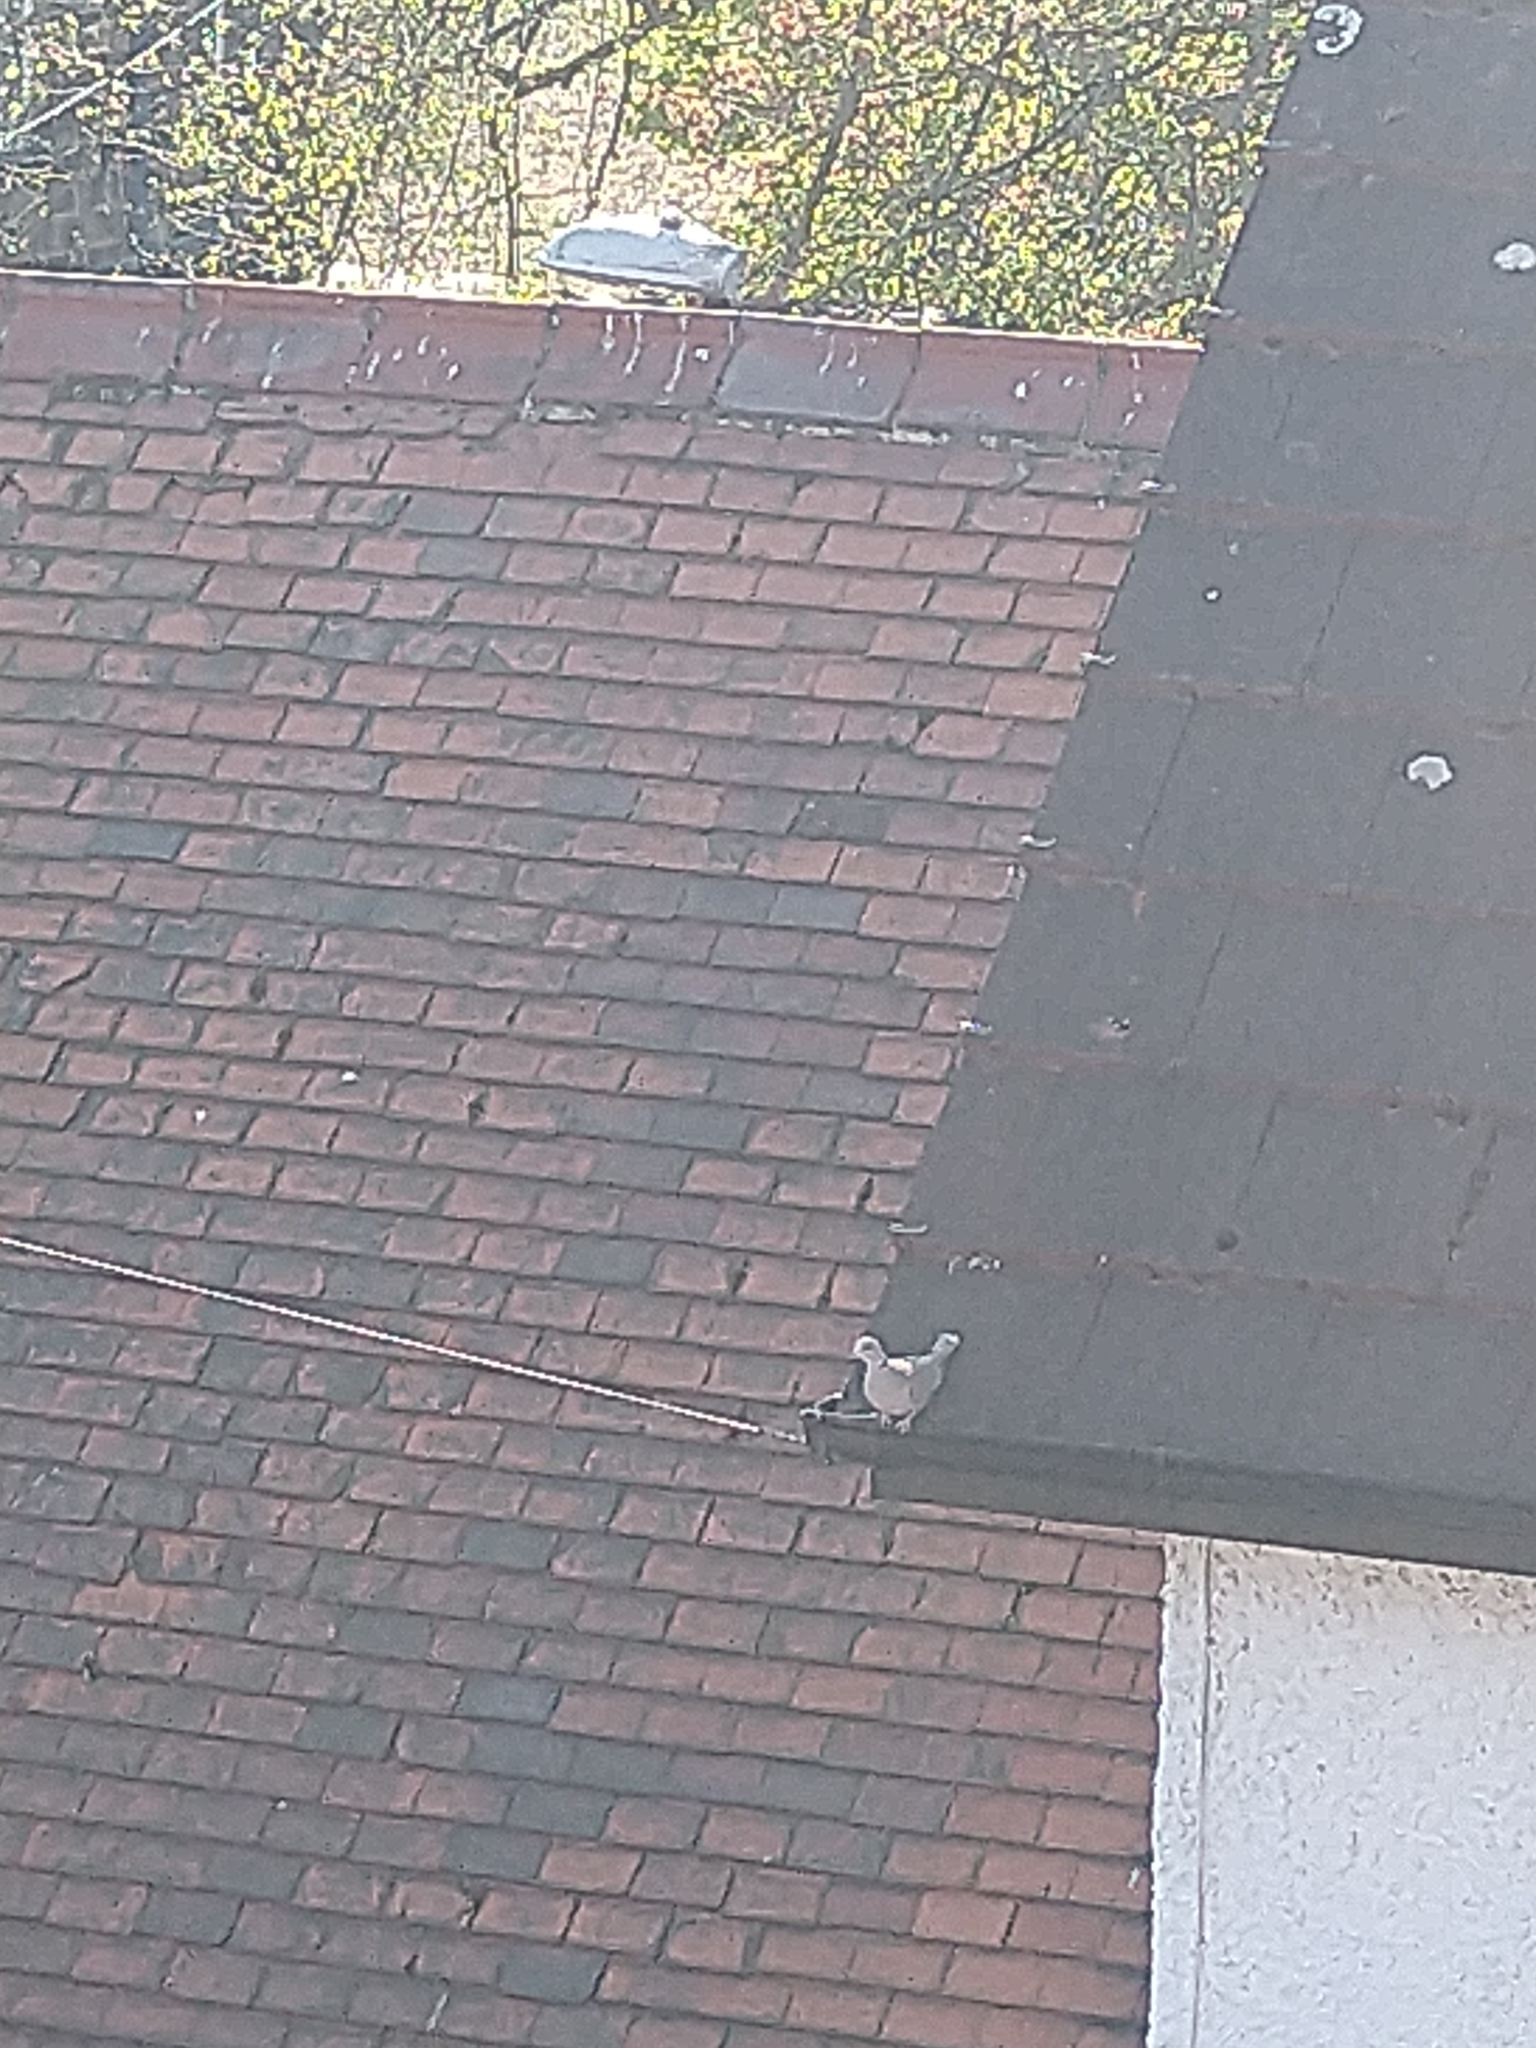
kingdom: Animalia
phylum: Chordata
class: Aves
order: Columbiformes
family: Columbidae
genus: Streptopelia
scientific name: Streptopelia decaocto
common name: Eurasian collared dove
